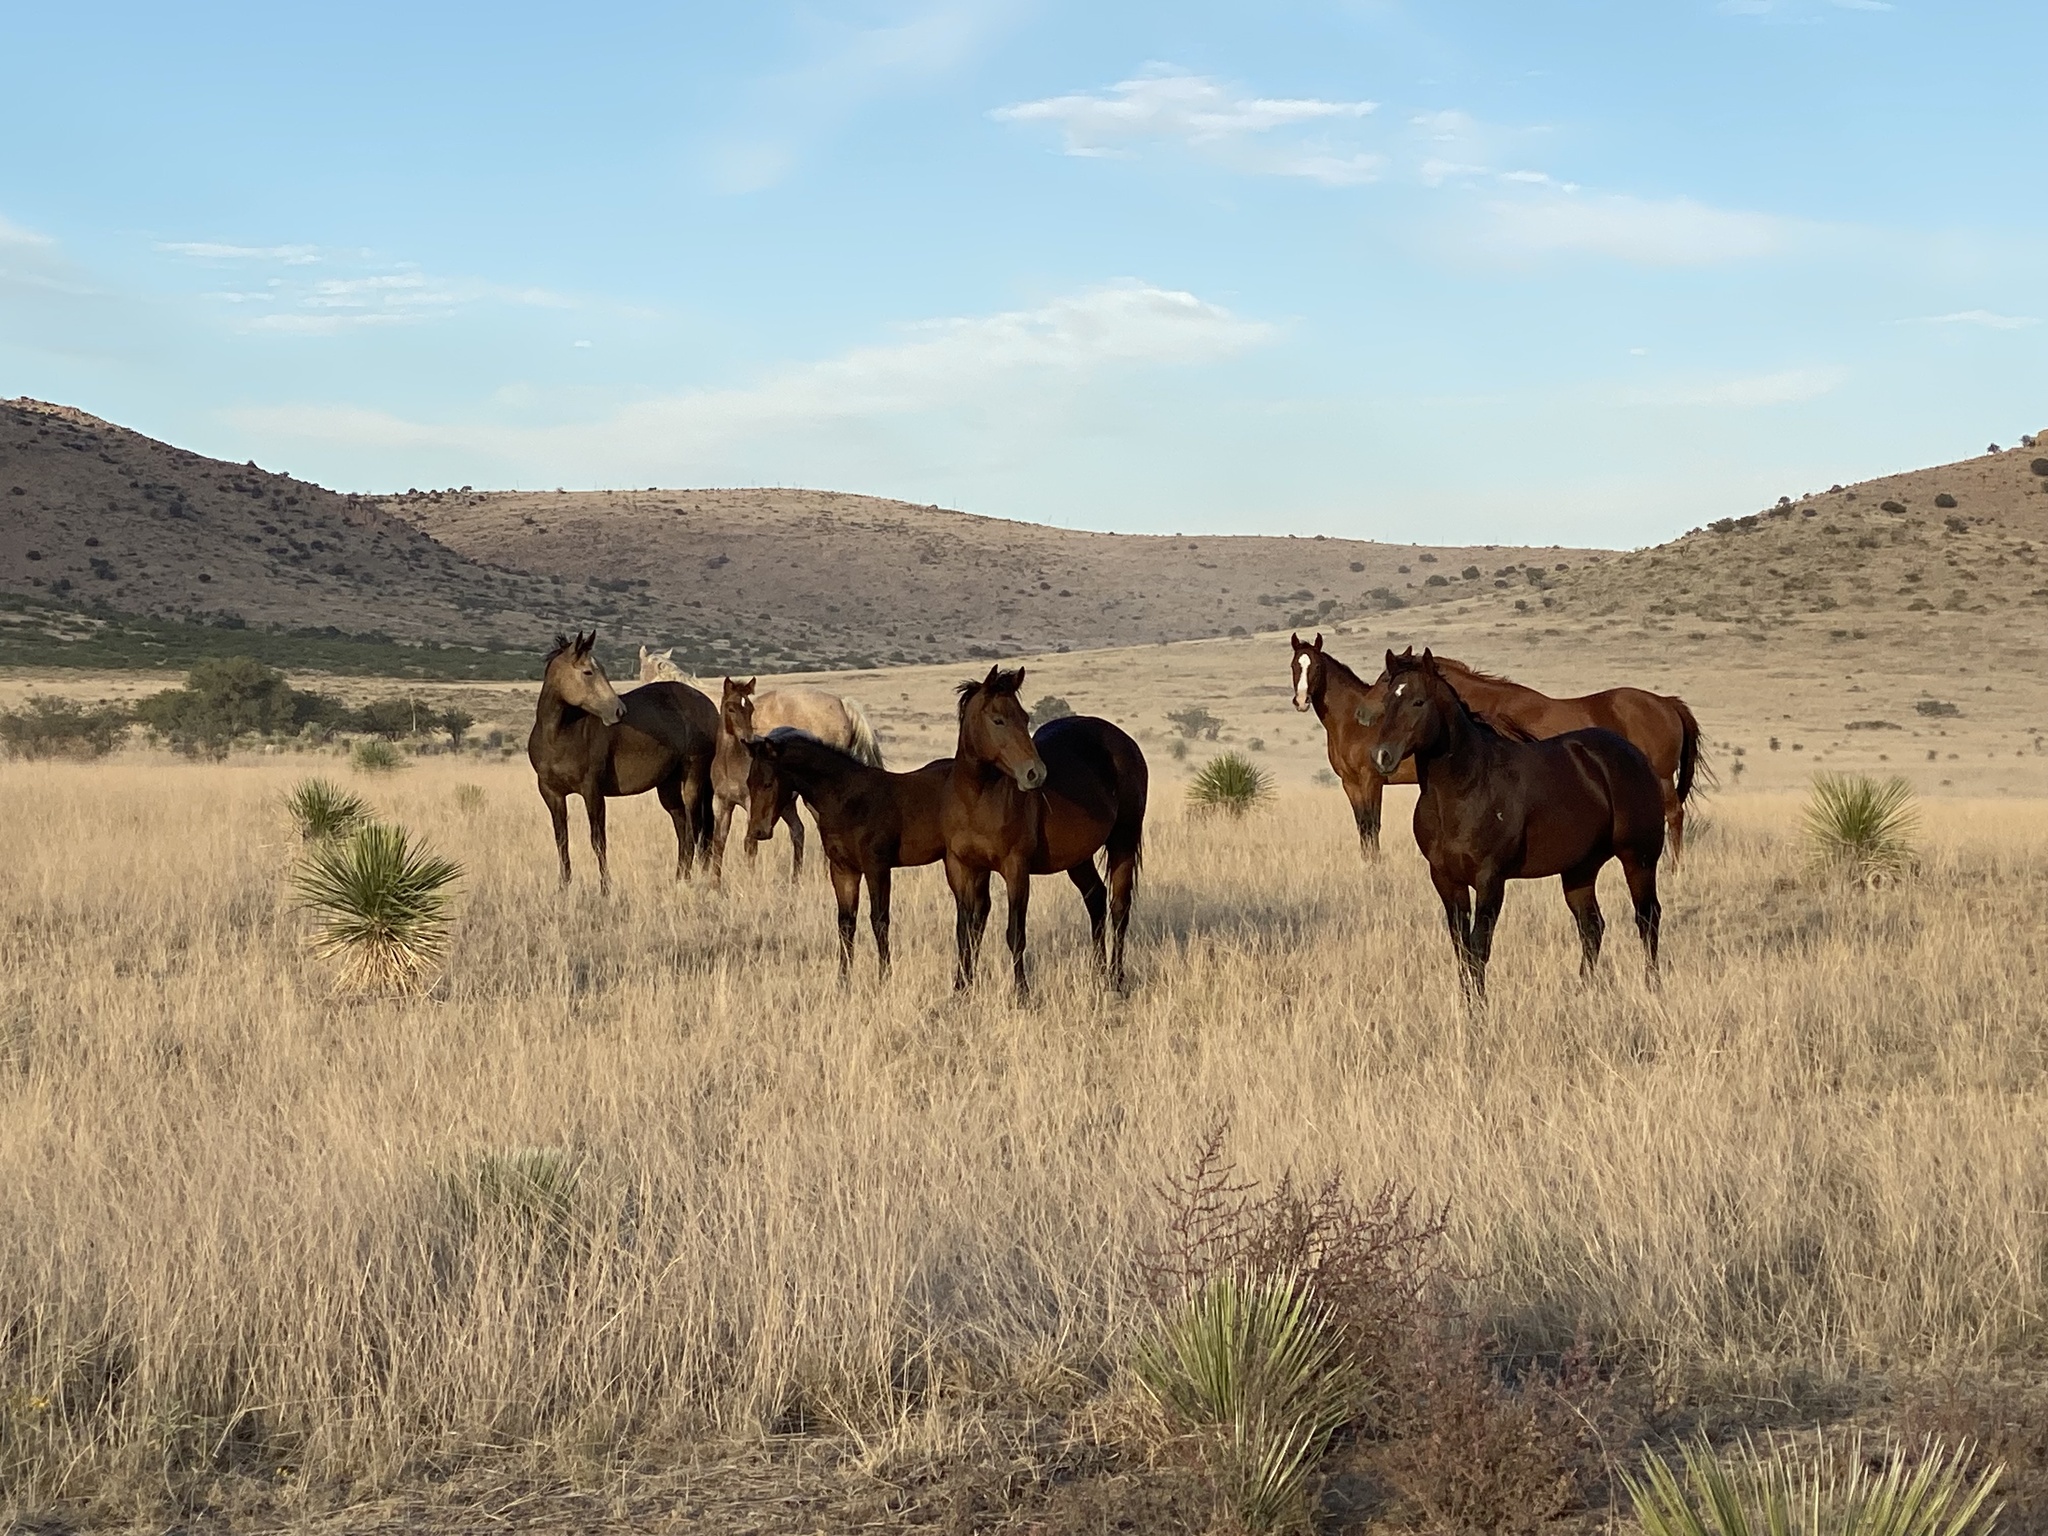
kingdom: Animalia
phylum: Chordata
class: Mammalia
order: Perissodactyla
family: Equidae
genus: Equus
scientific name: Equus caballus
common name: Horse
